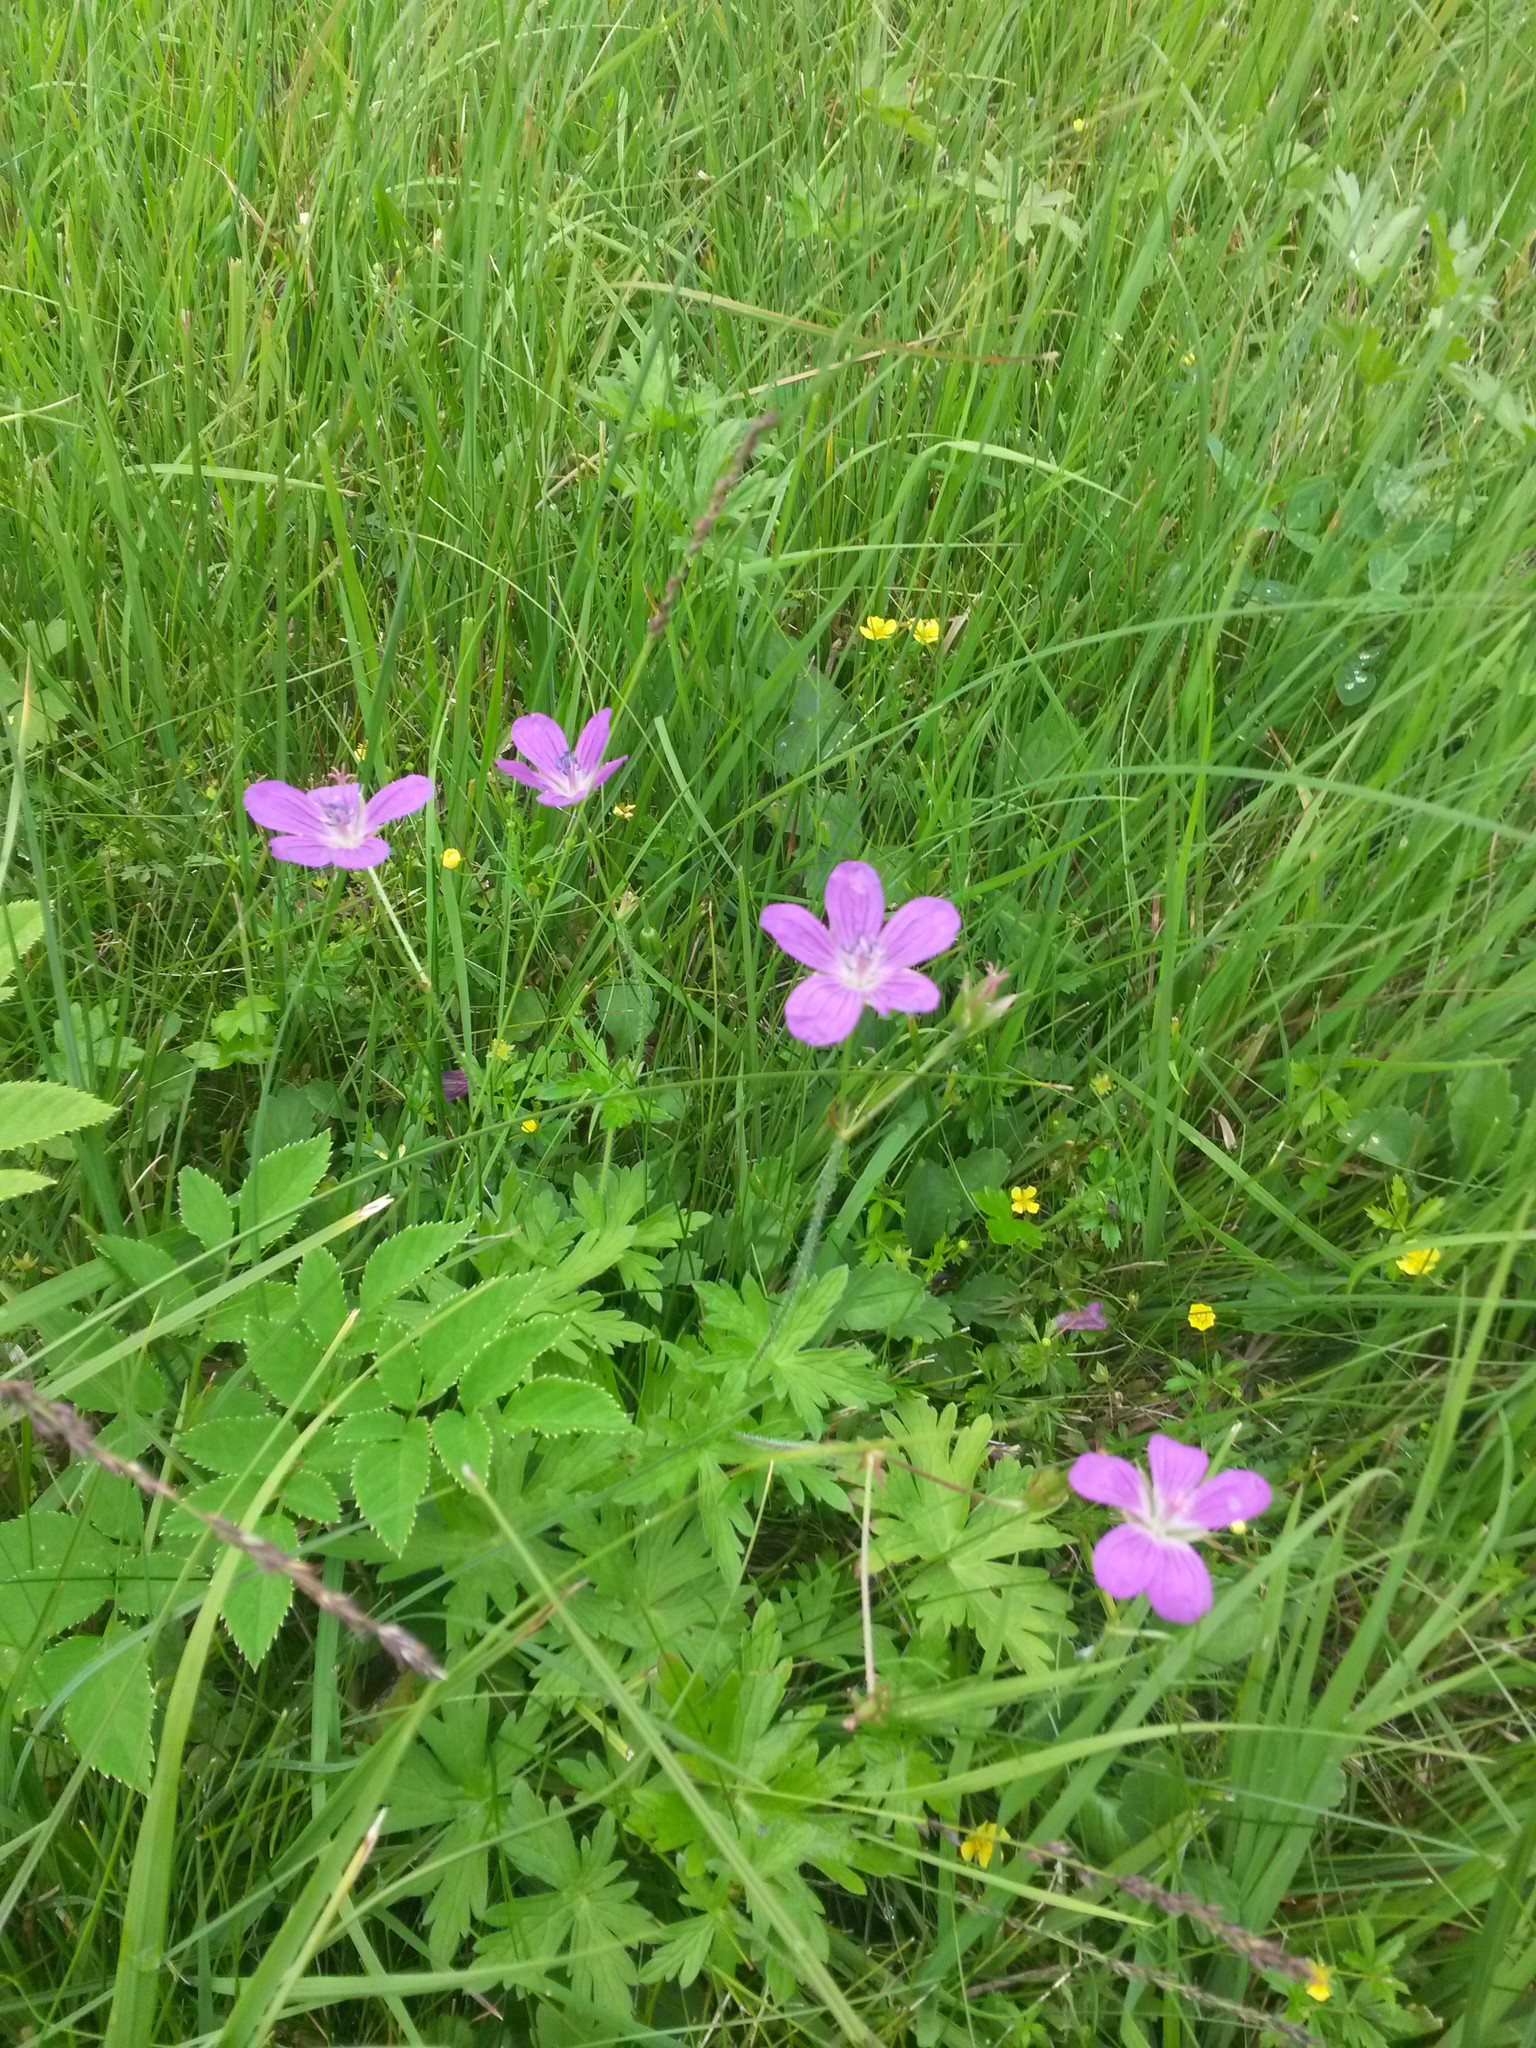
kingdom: Plantae
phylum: Tracheophyta
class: Magnoliopsida
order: Geraniales
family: Geraniaceae
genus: Geranium
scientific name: Geranium palustre
